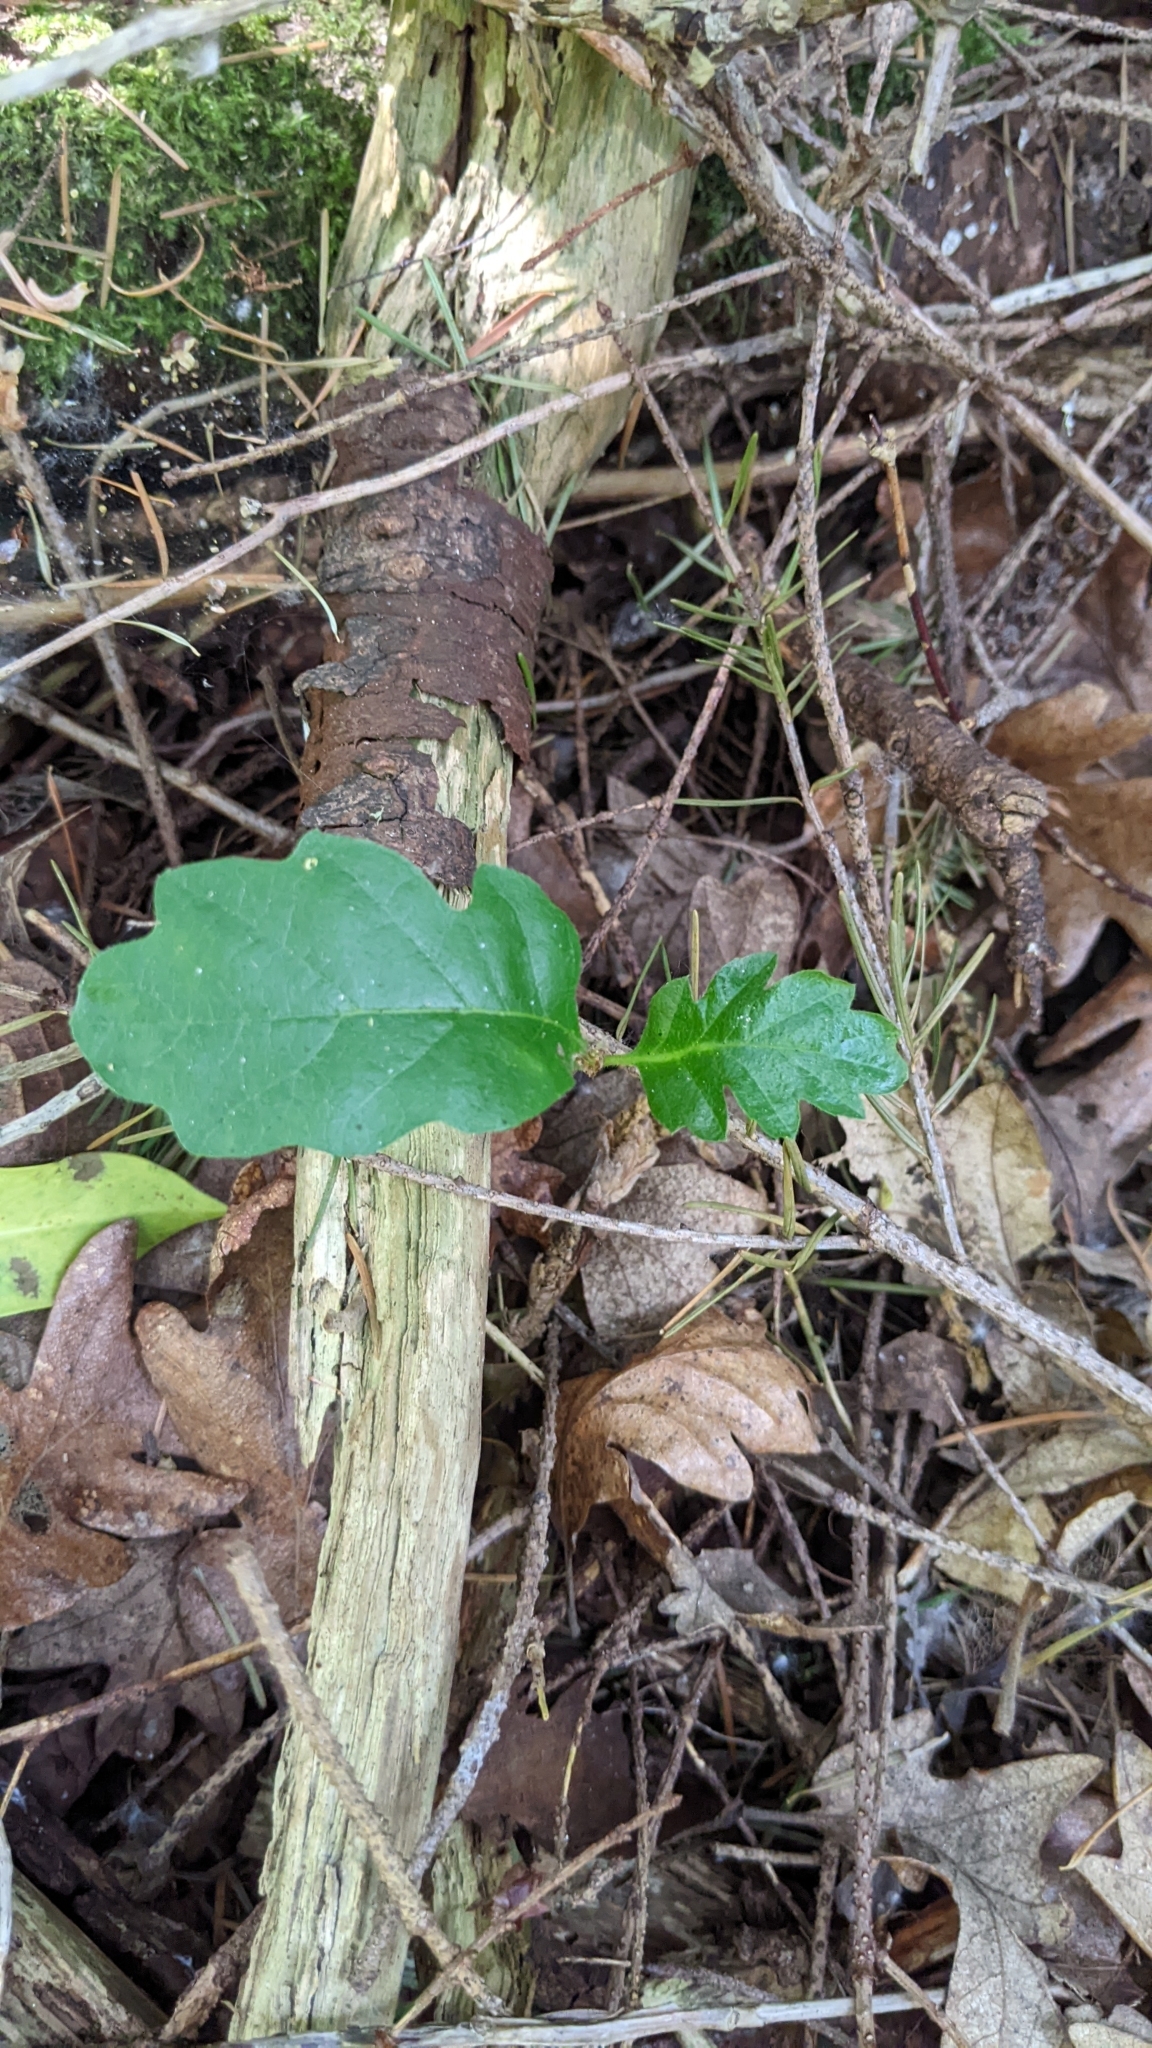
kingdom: Plantae
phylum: Tracheophyta
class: Magnoliopsida
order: Fagales
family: Fagaceae
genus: Quercus
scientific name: Quercus garryana
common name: Garry oak
